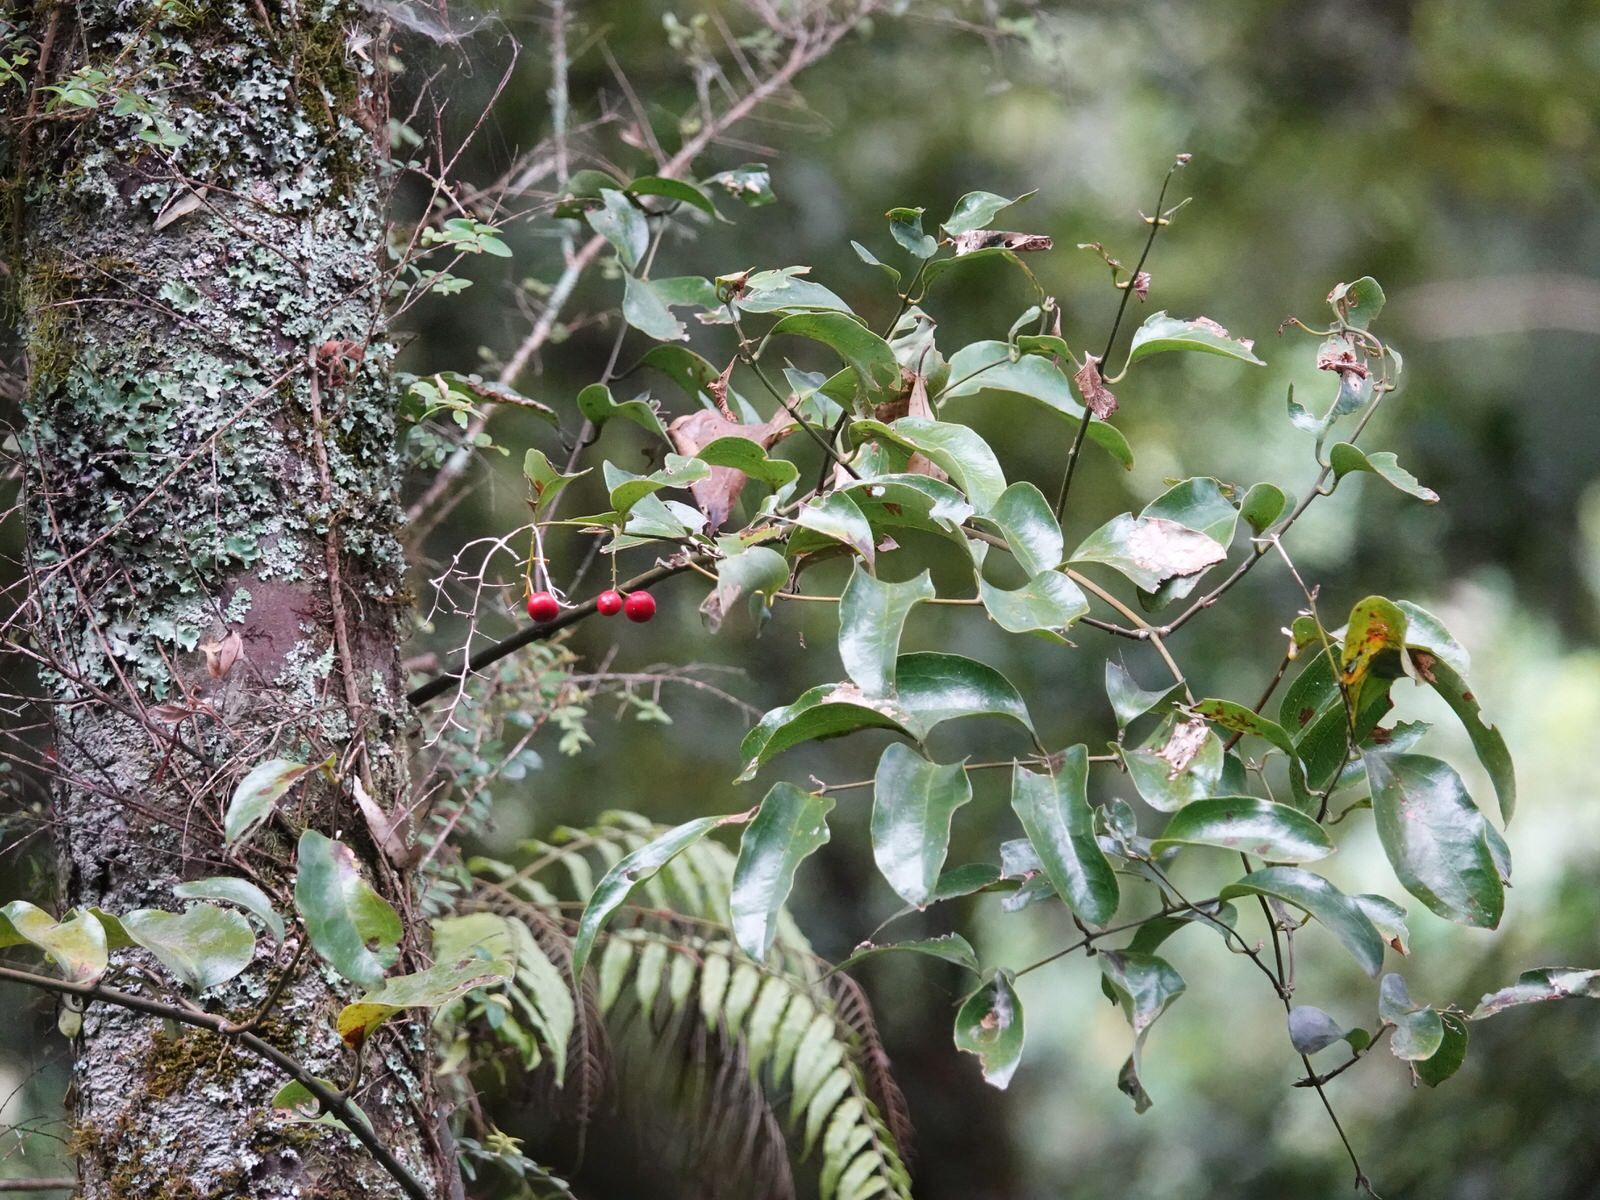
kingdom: Plantae
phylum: Tracheophyta
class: Liliopsida
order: Liliales
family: Ripogonaceae
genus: Ripogonum
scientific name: Ripogonum scandens
